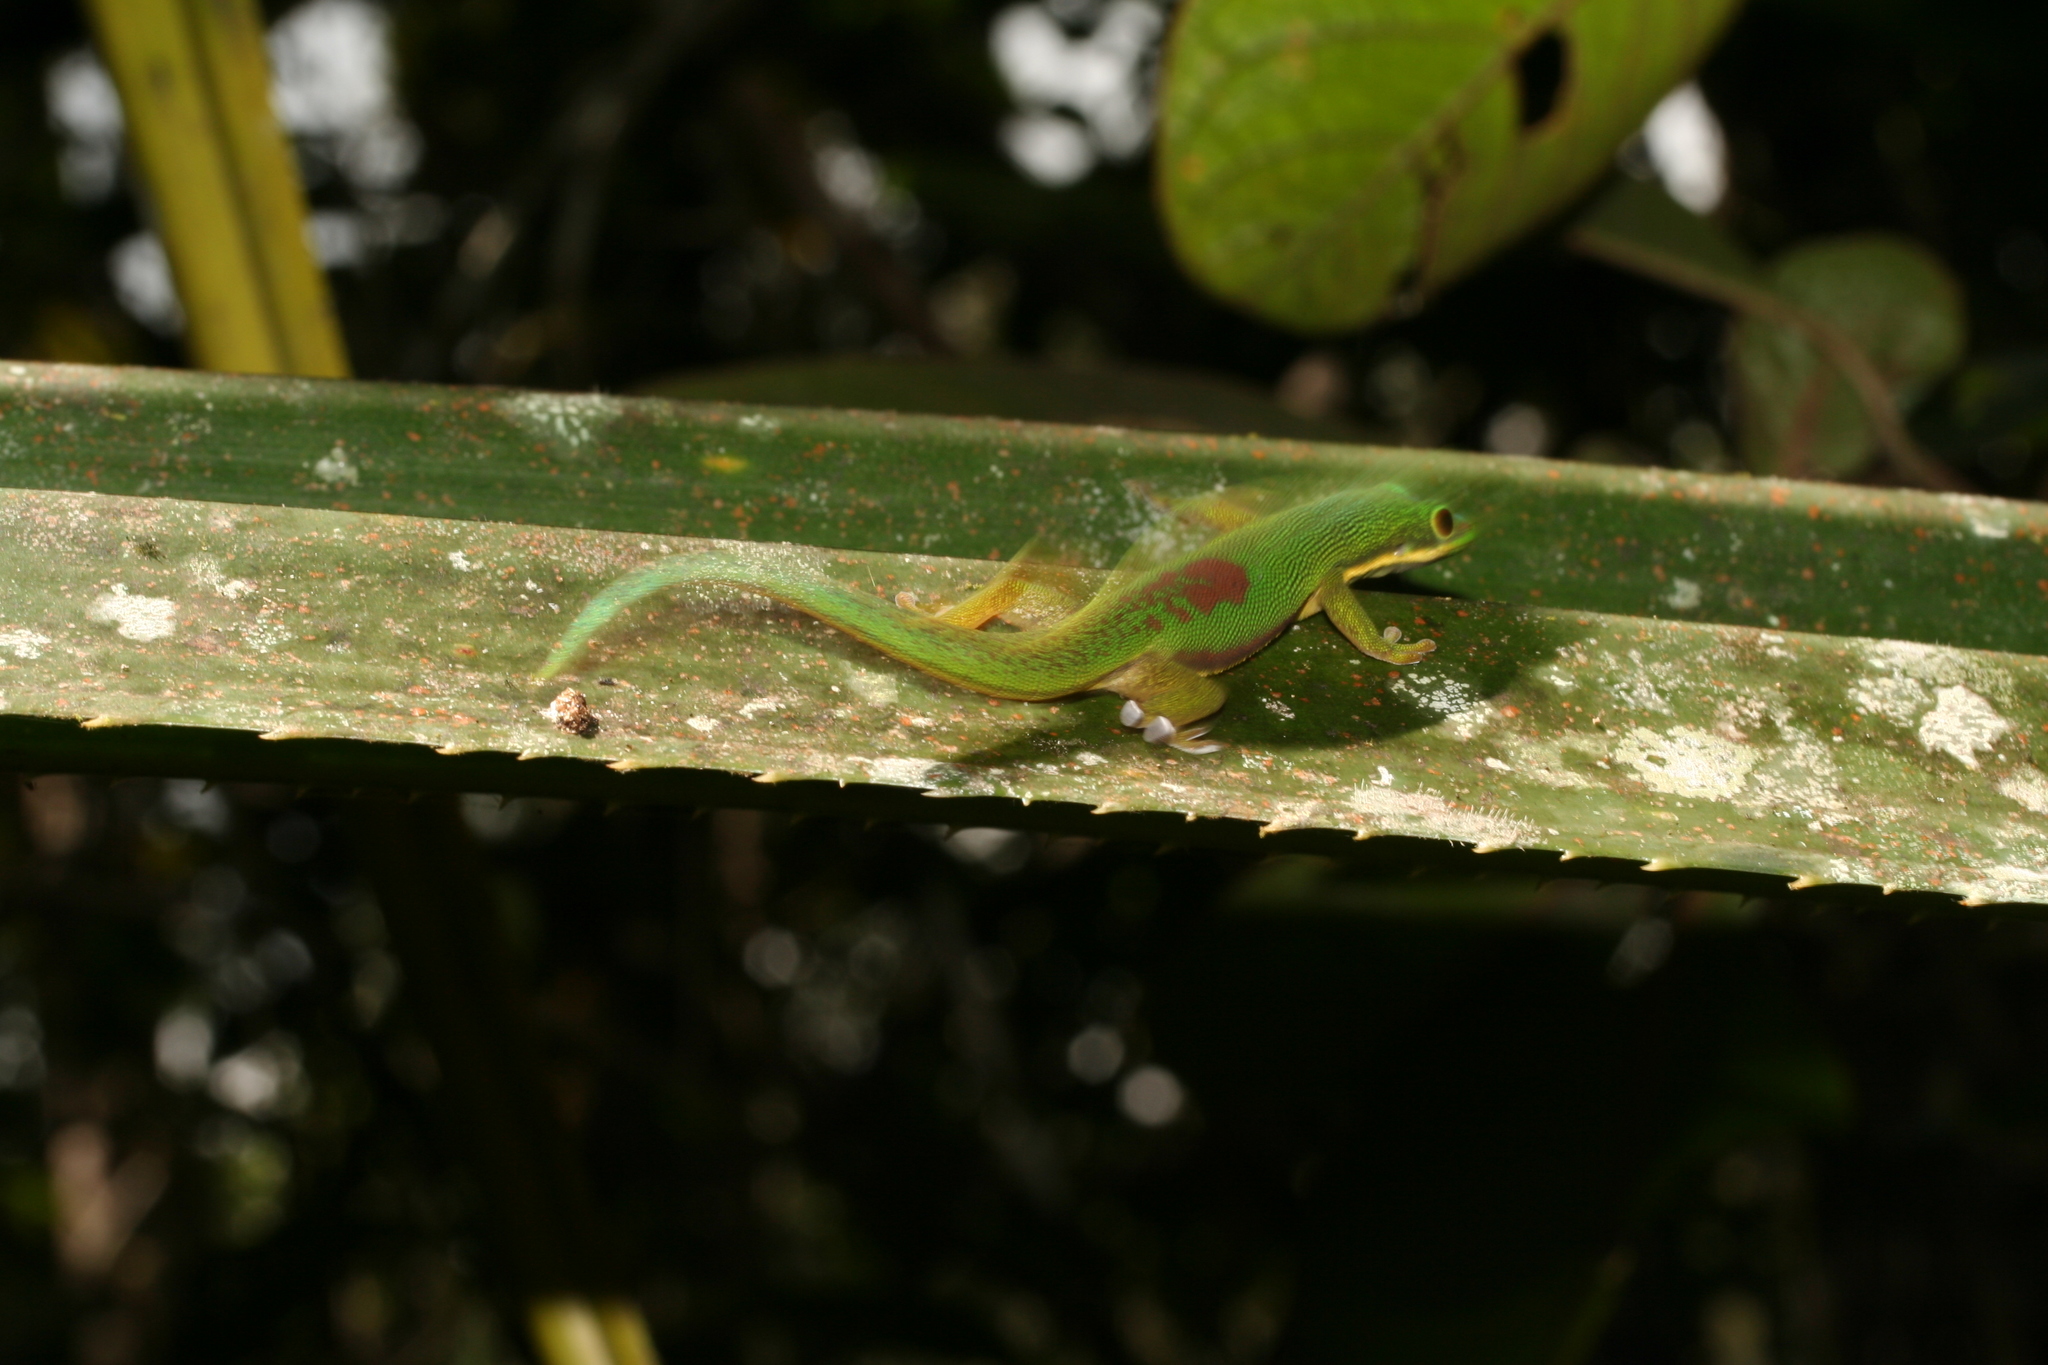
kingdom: Animalia
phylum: Chordata
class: Squamata
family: Gekkonidae
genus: Phelsuma
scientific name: Phelsuma lineata
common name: Lined day gecko
